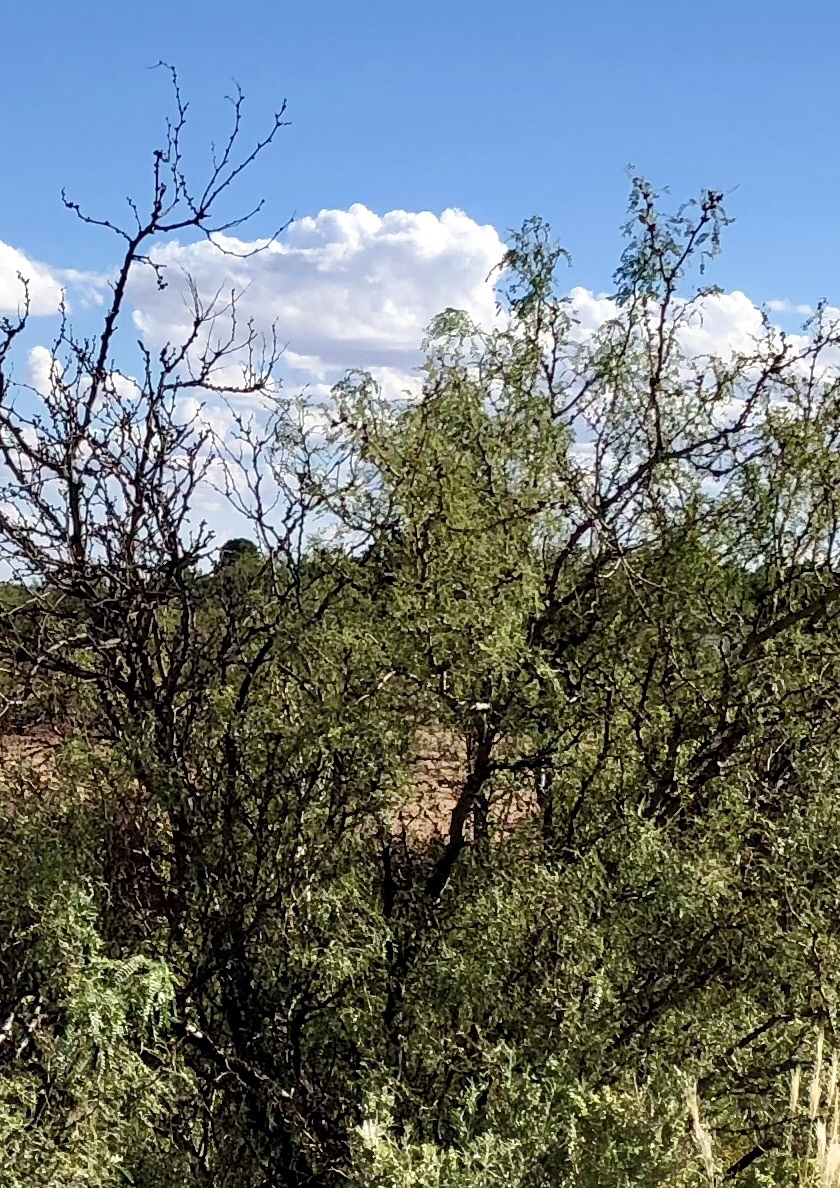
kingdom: Plantae
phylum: Tracheophyta
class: Magnoliopsida
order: Fabales
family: Fabaceae
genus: Prosopis
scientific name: Prosopis glandulosa
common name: Honey mesquite
